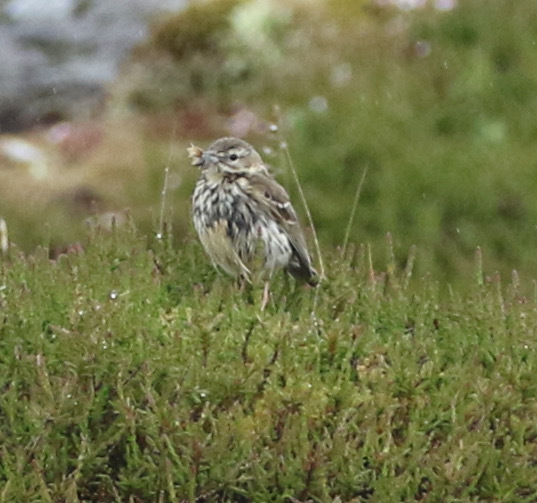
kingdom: Animalia
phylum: Chordata
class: Aves
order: Passeriformes
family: Motacillidae
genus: Anthus
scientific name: Anthus pratensis
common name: Meadow pipit
